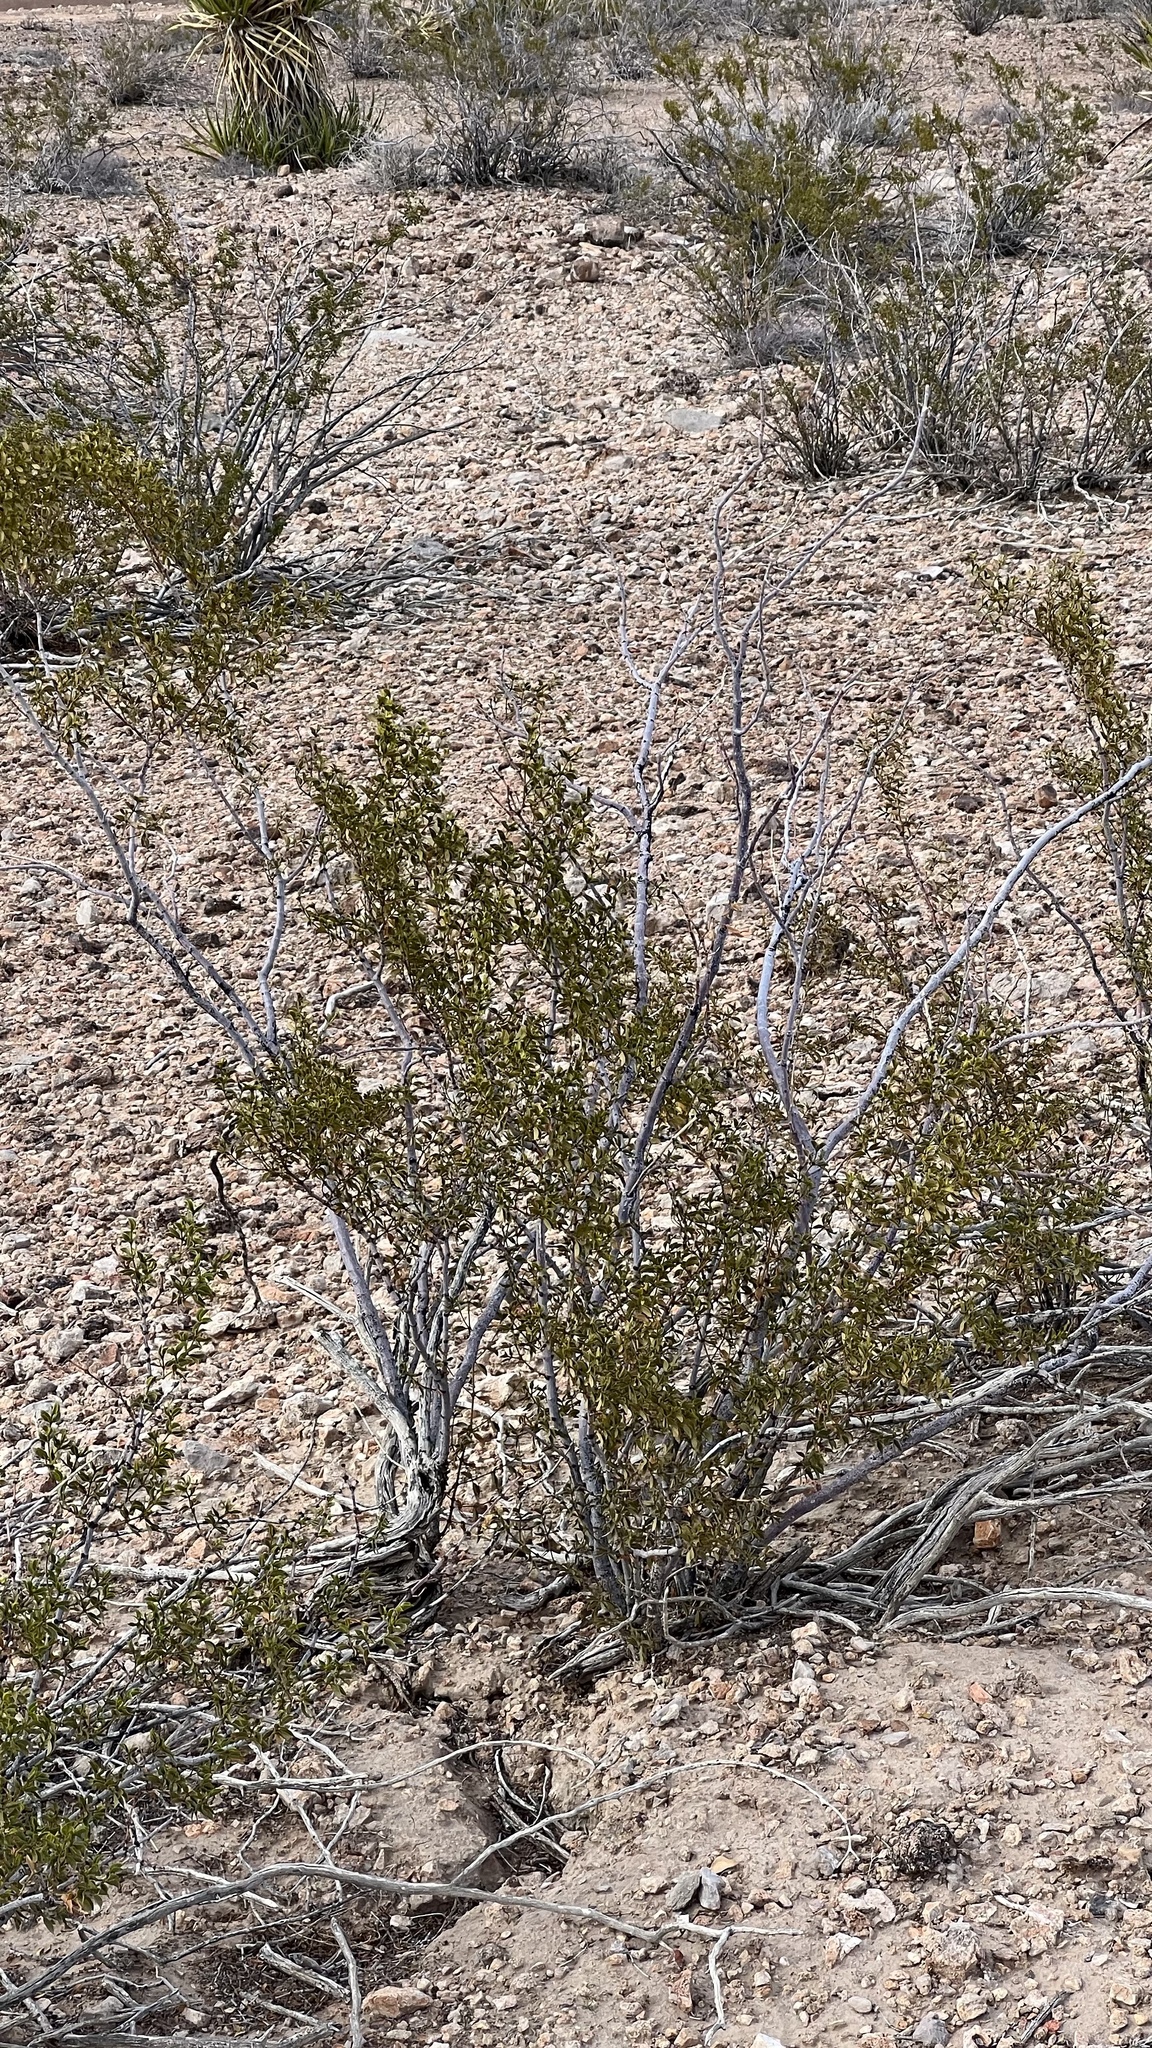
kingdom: Plantae
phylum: Tracheophyta
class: Magnoliopsida
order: Zygophyllales
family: Zygophyllaceae
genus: Larrea
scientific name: Larrea tridentata
